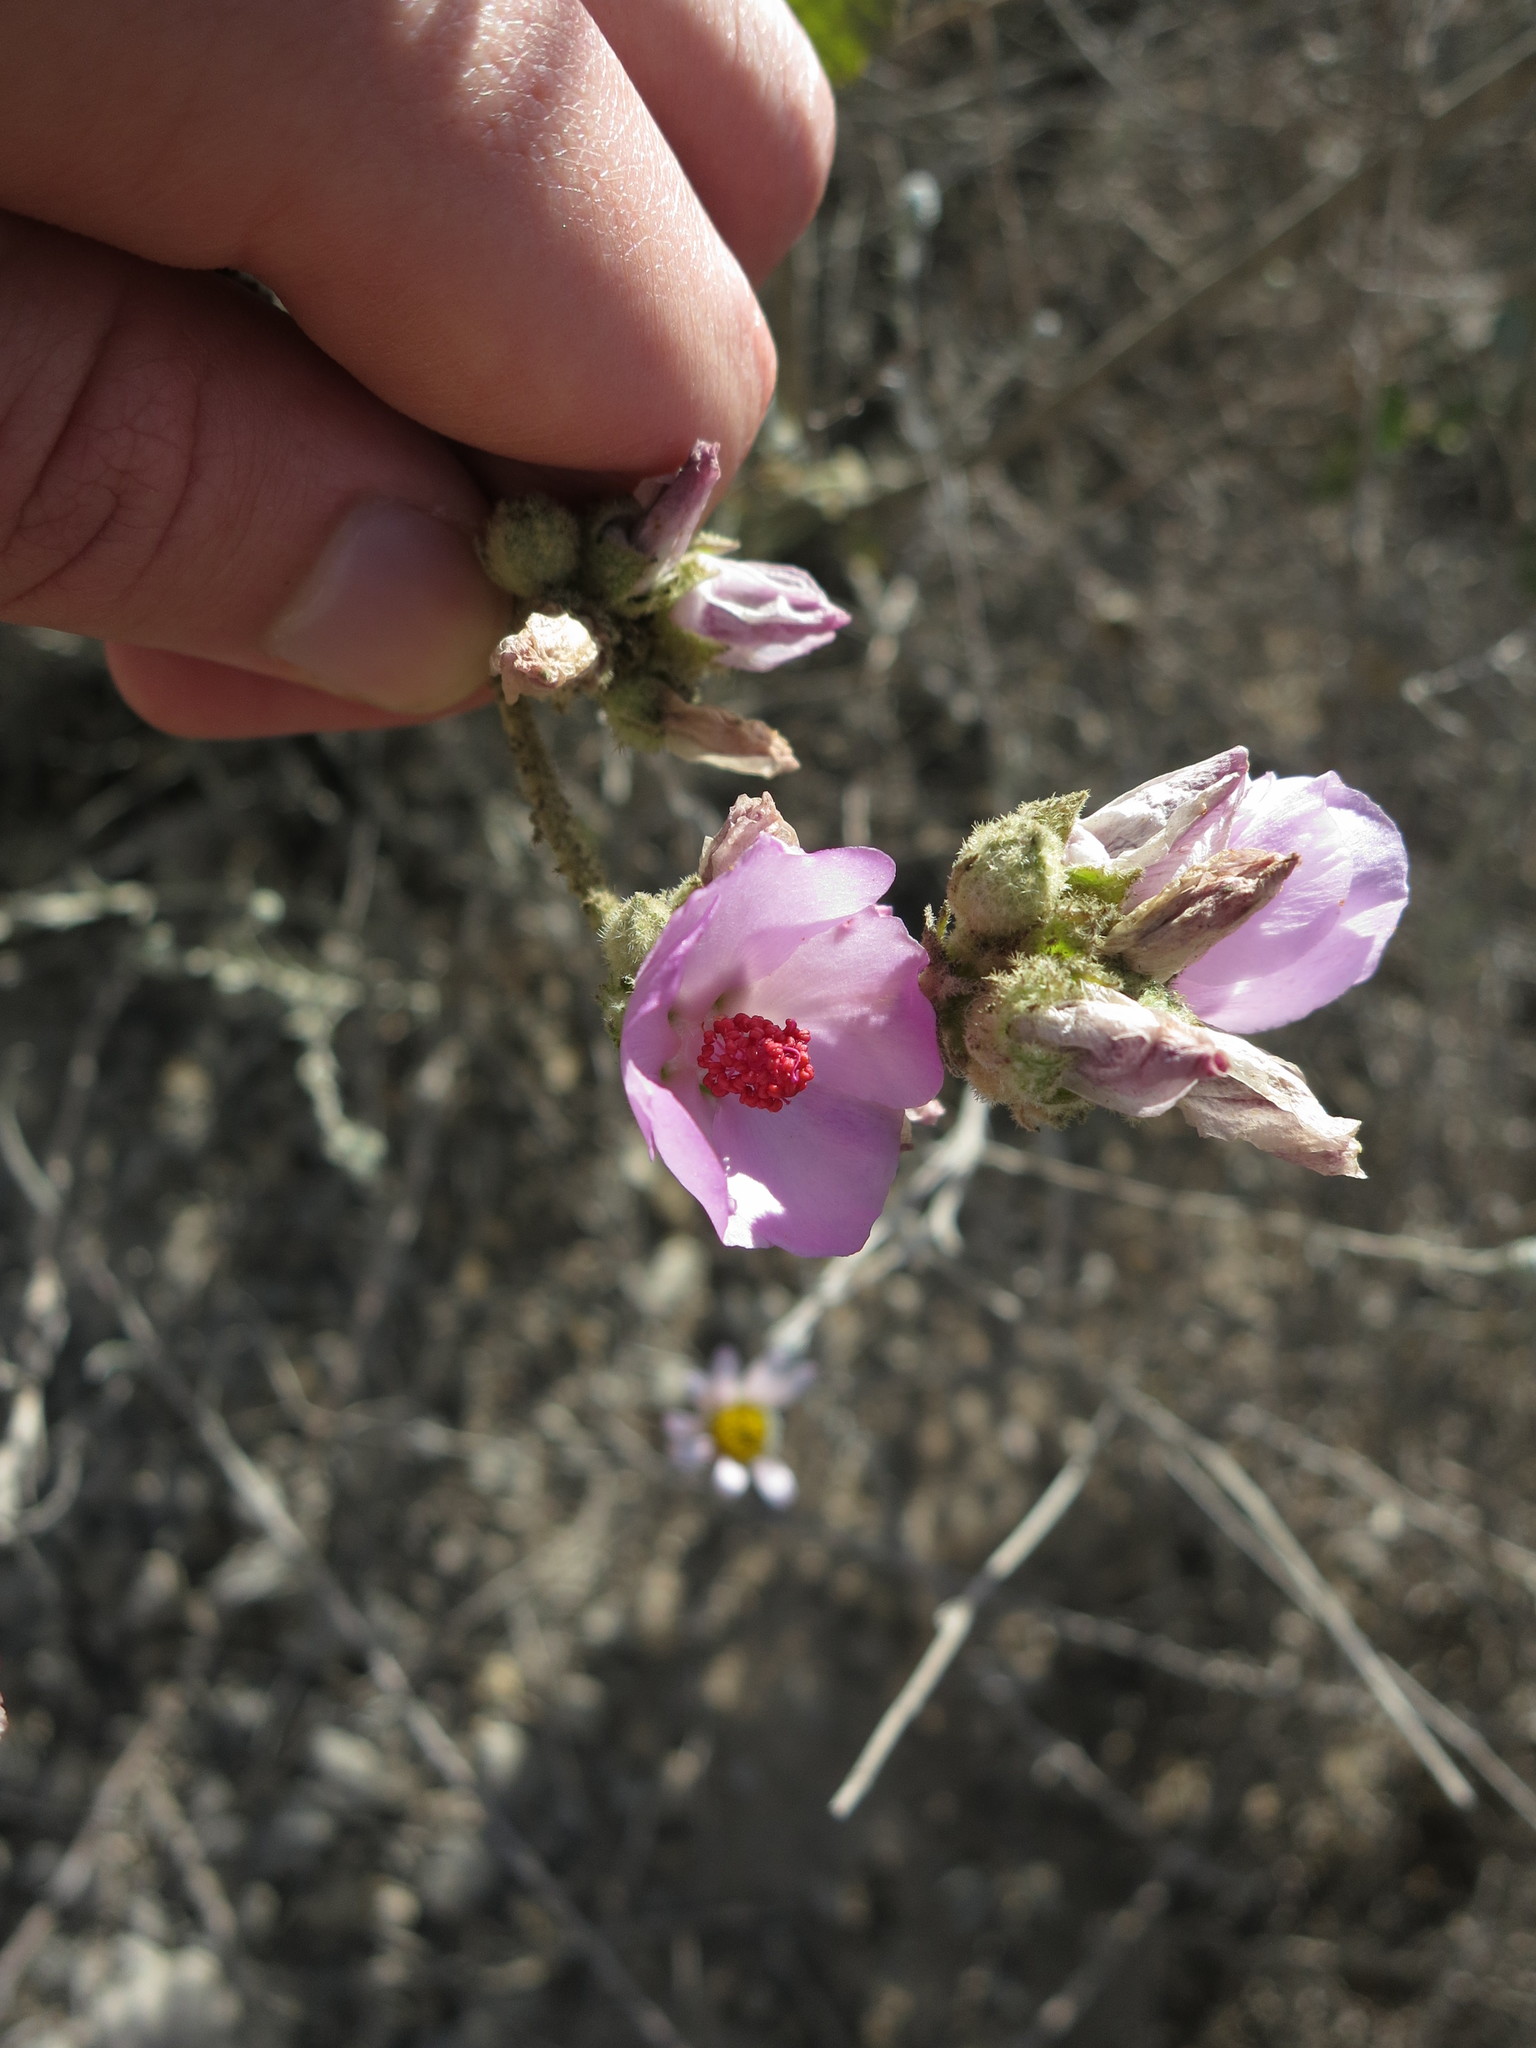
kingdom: Plantae
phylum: Tracheophyta
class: Magnoliopsida
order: Malvales
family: Malvaceae
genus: Malacothamnus
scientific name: Malacothamnus fasciculatus
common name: Sant cruz island bush-mallow
